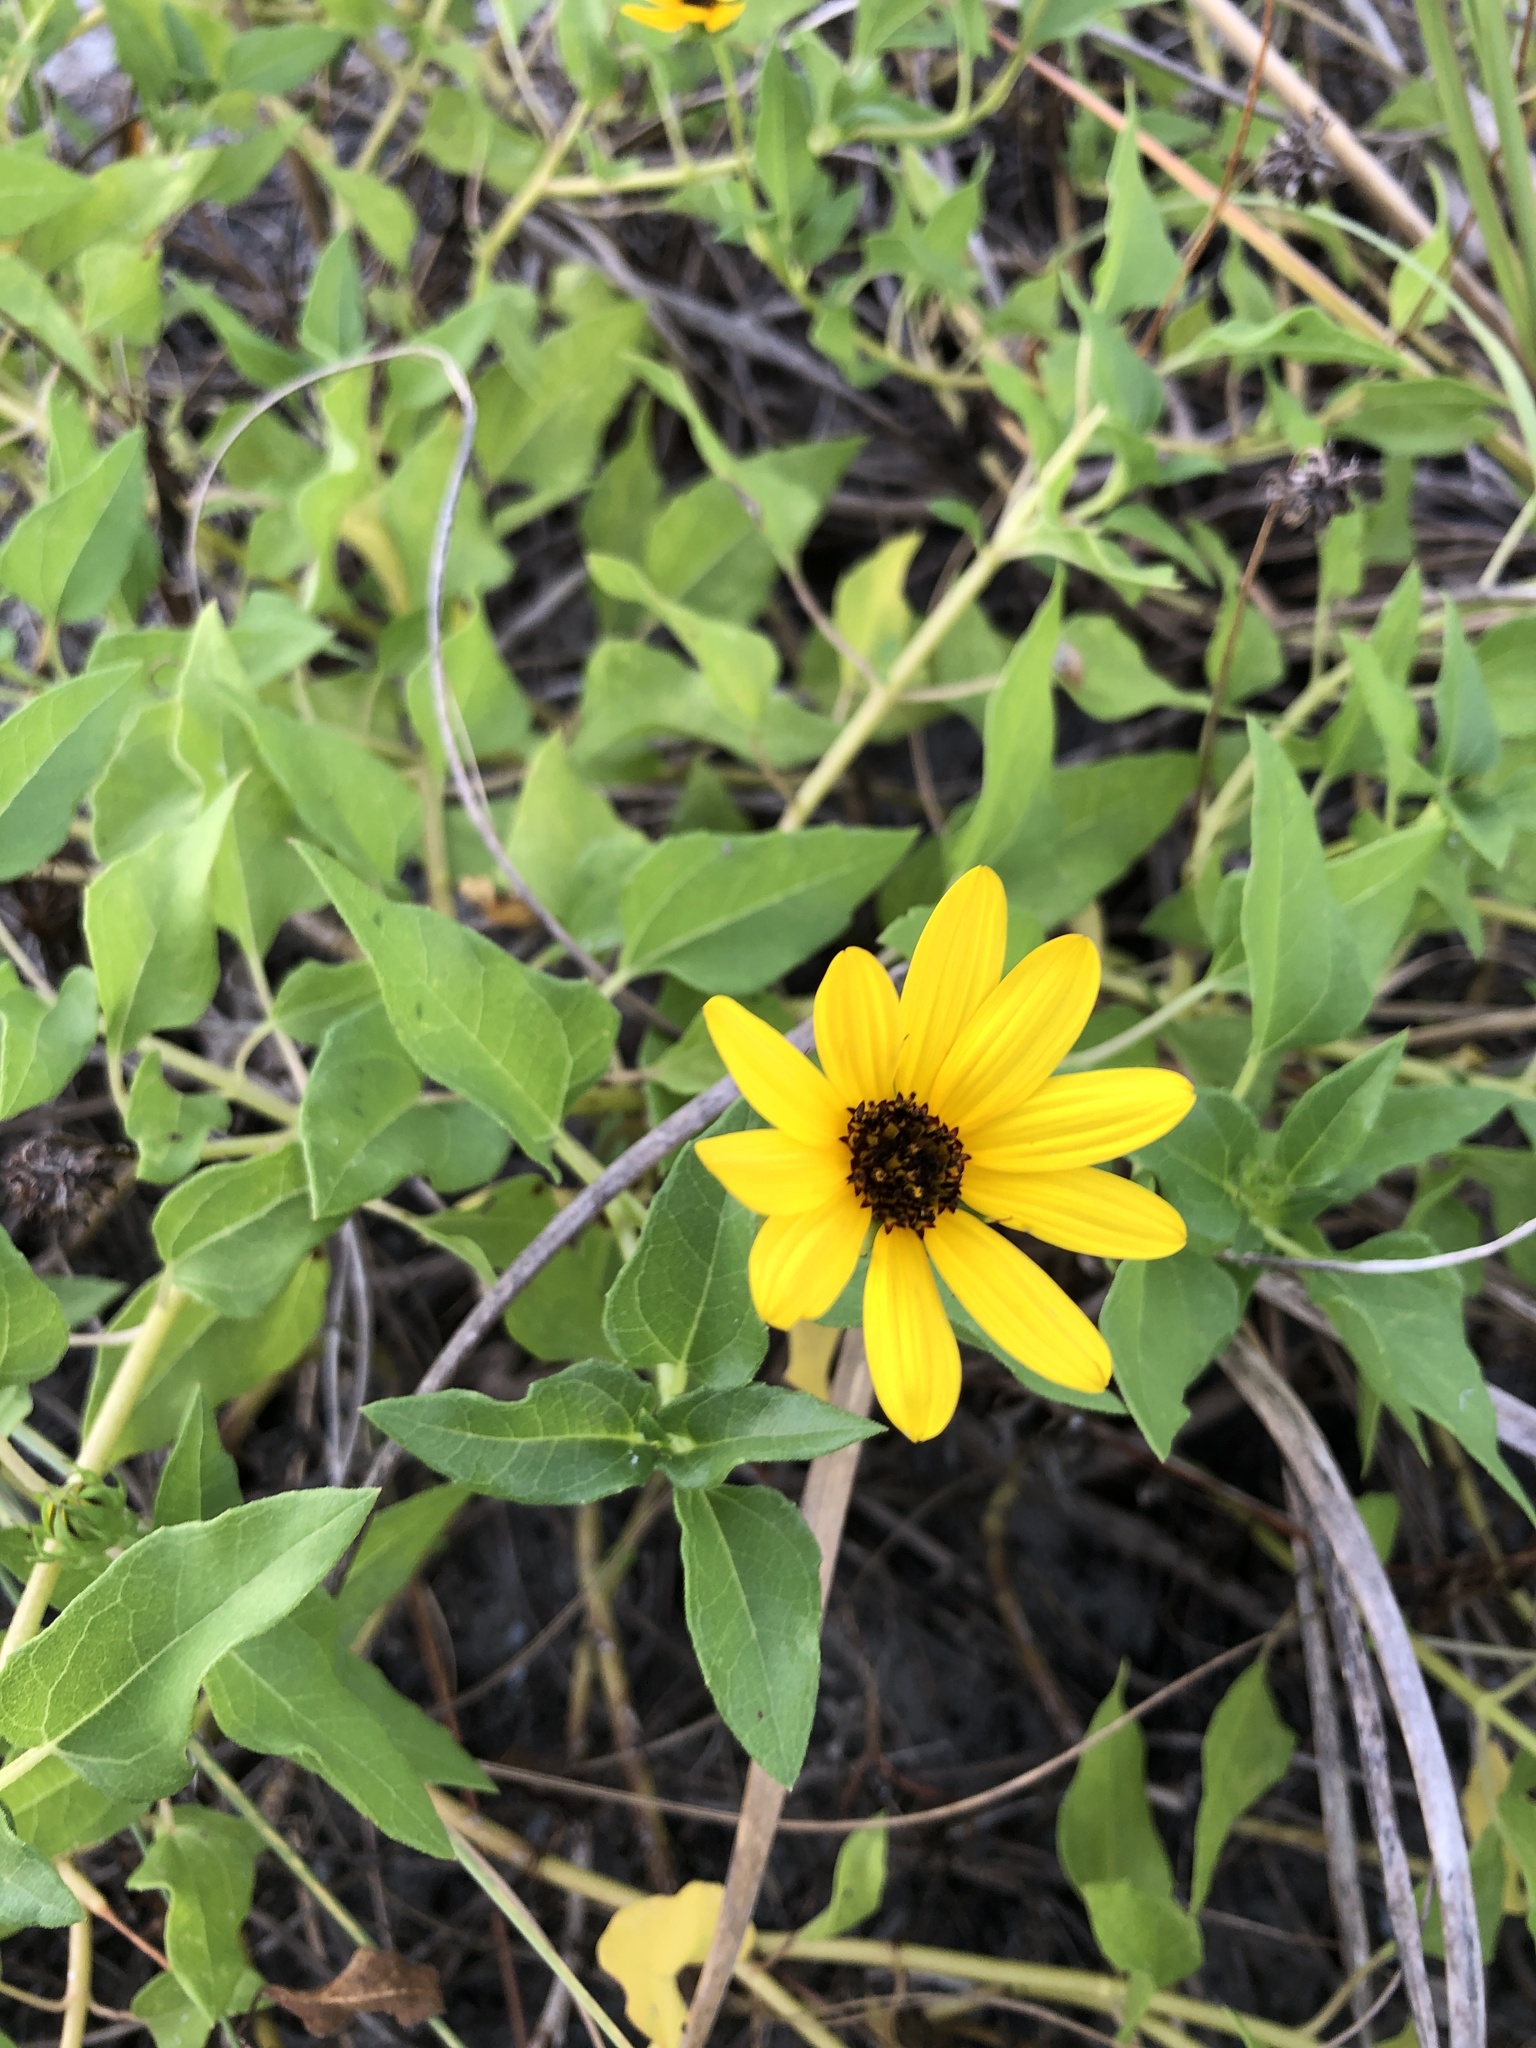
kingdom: Plantae
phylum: Tracheophyta
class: Magnoliopsida
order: Asterales
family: Asteraceae
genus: Helianthus
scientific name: Helianthus debilis
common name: Weak sunflower
